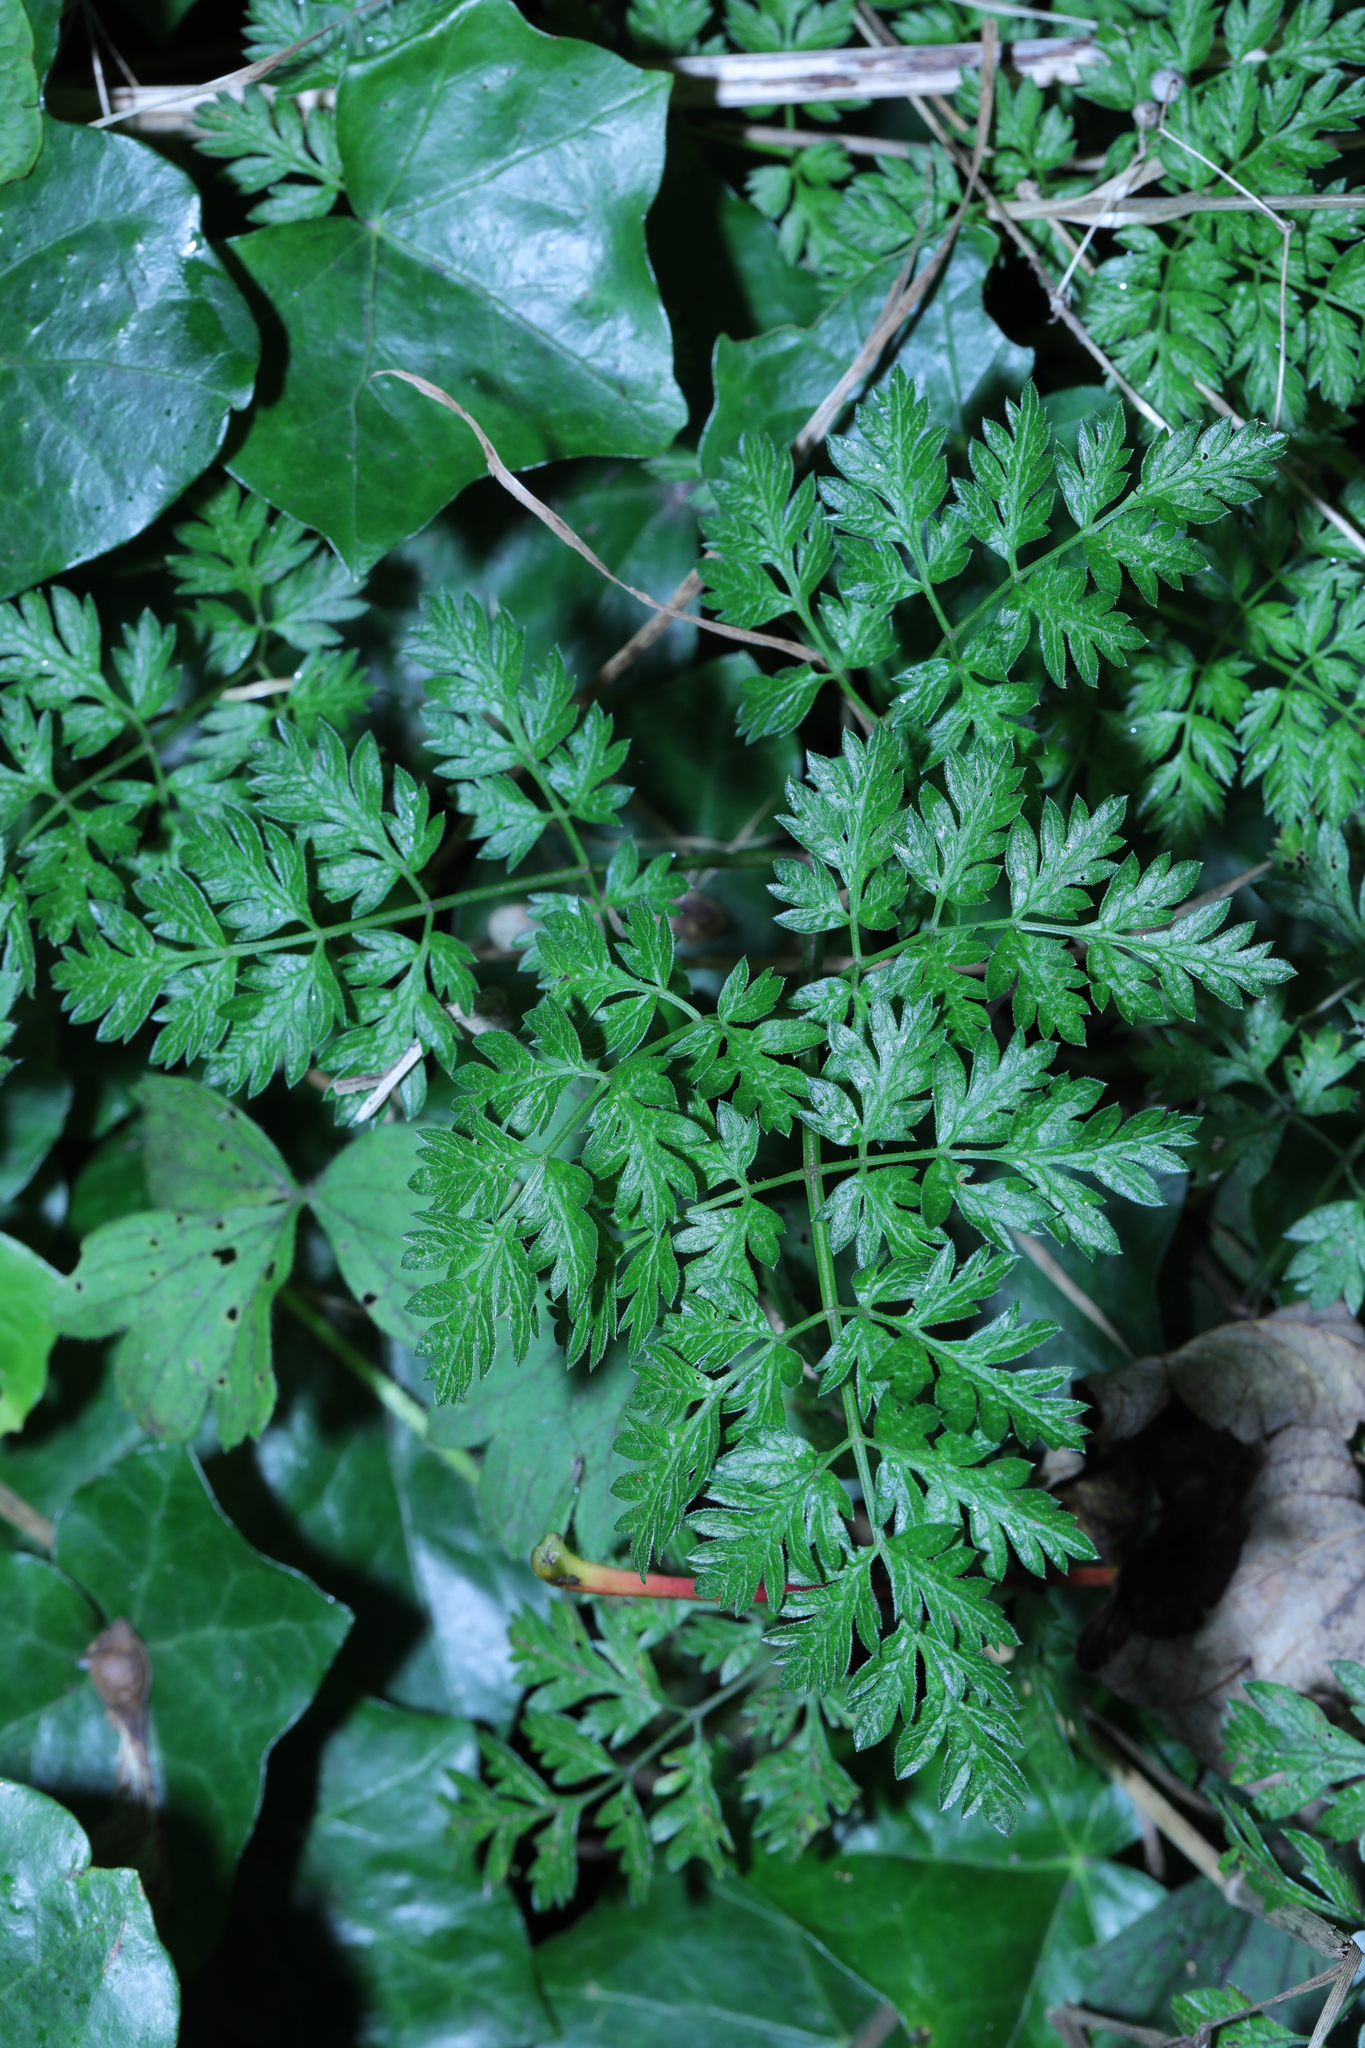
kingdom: Plantae
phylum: Tracheophyta
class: Magnoliopsida
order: Apiales
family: Apiaceae
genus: Anthriscus
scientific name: Anthriscus sylvestris
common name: Cow parsley
